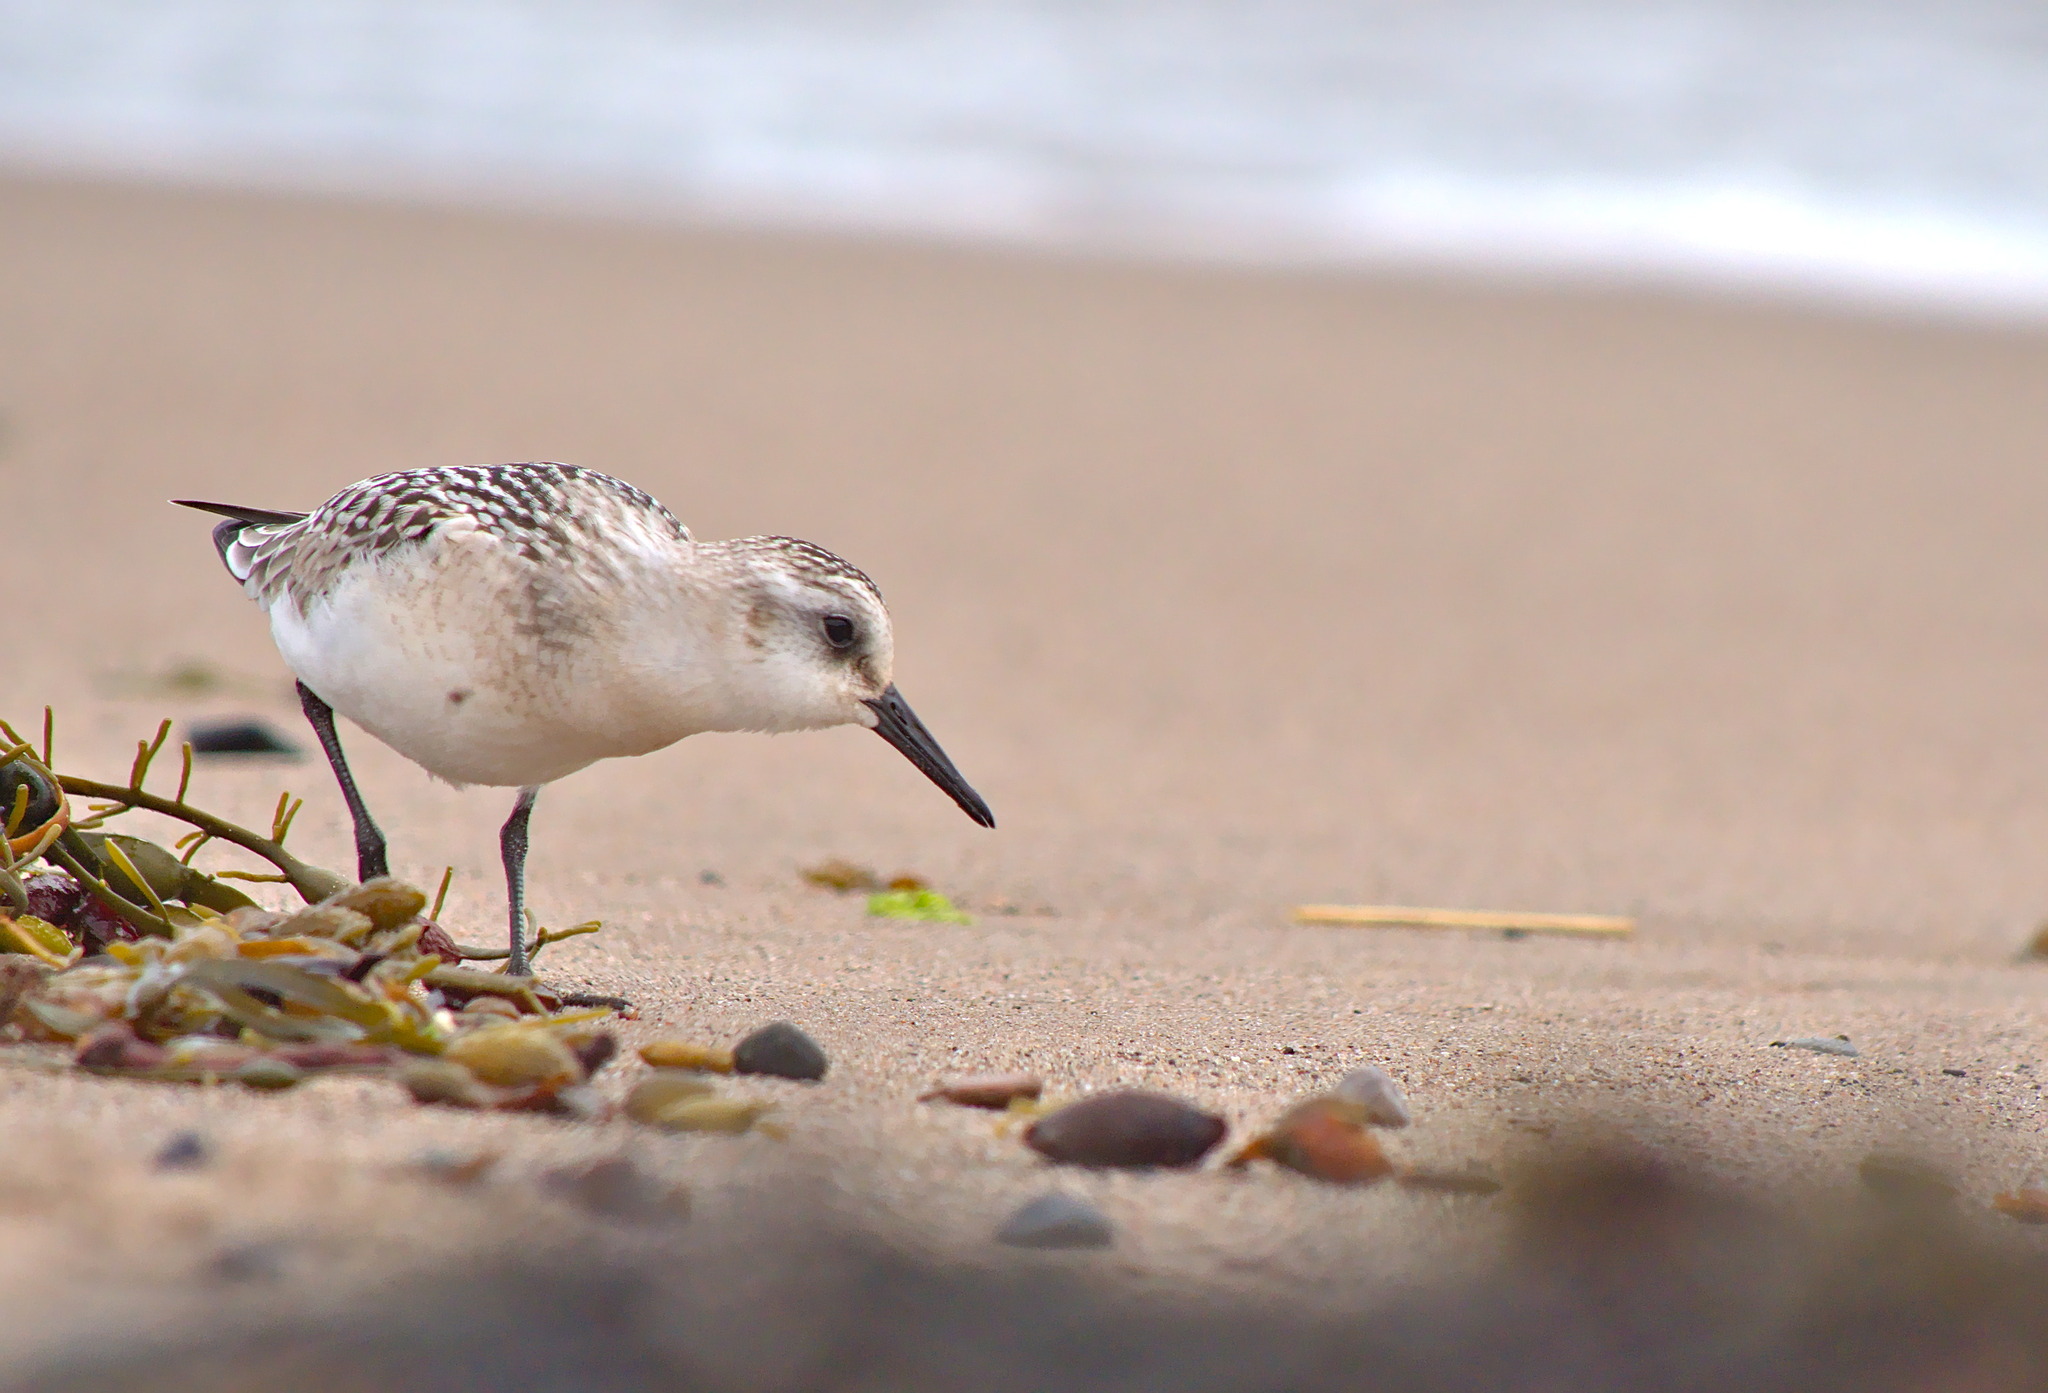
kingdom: Animalia
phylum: Chordata
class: Aves
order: Charadriiformes
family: Scolopacidae
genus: Calidris
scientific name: Calidris alba
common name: Sanderling
